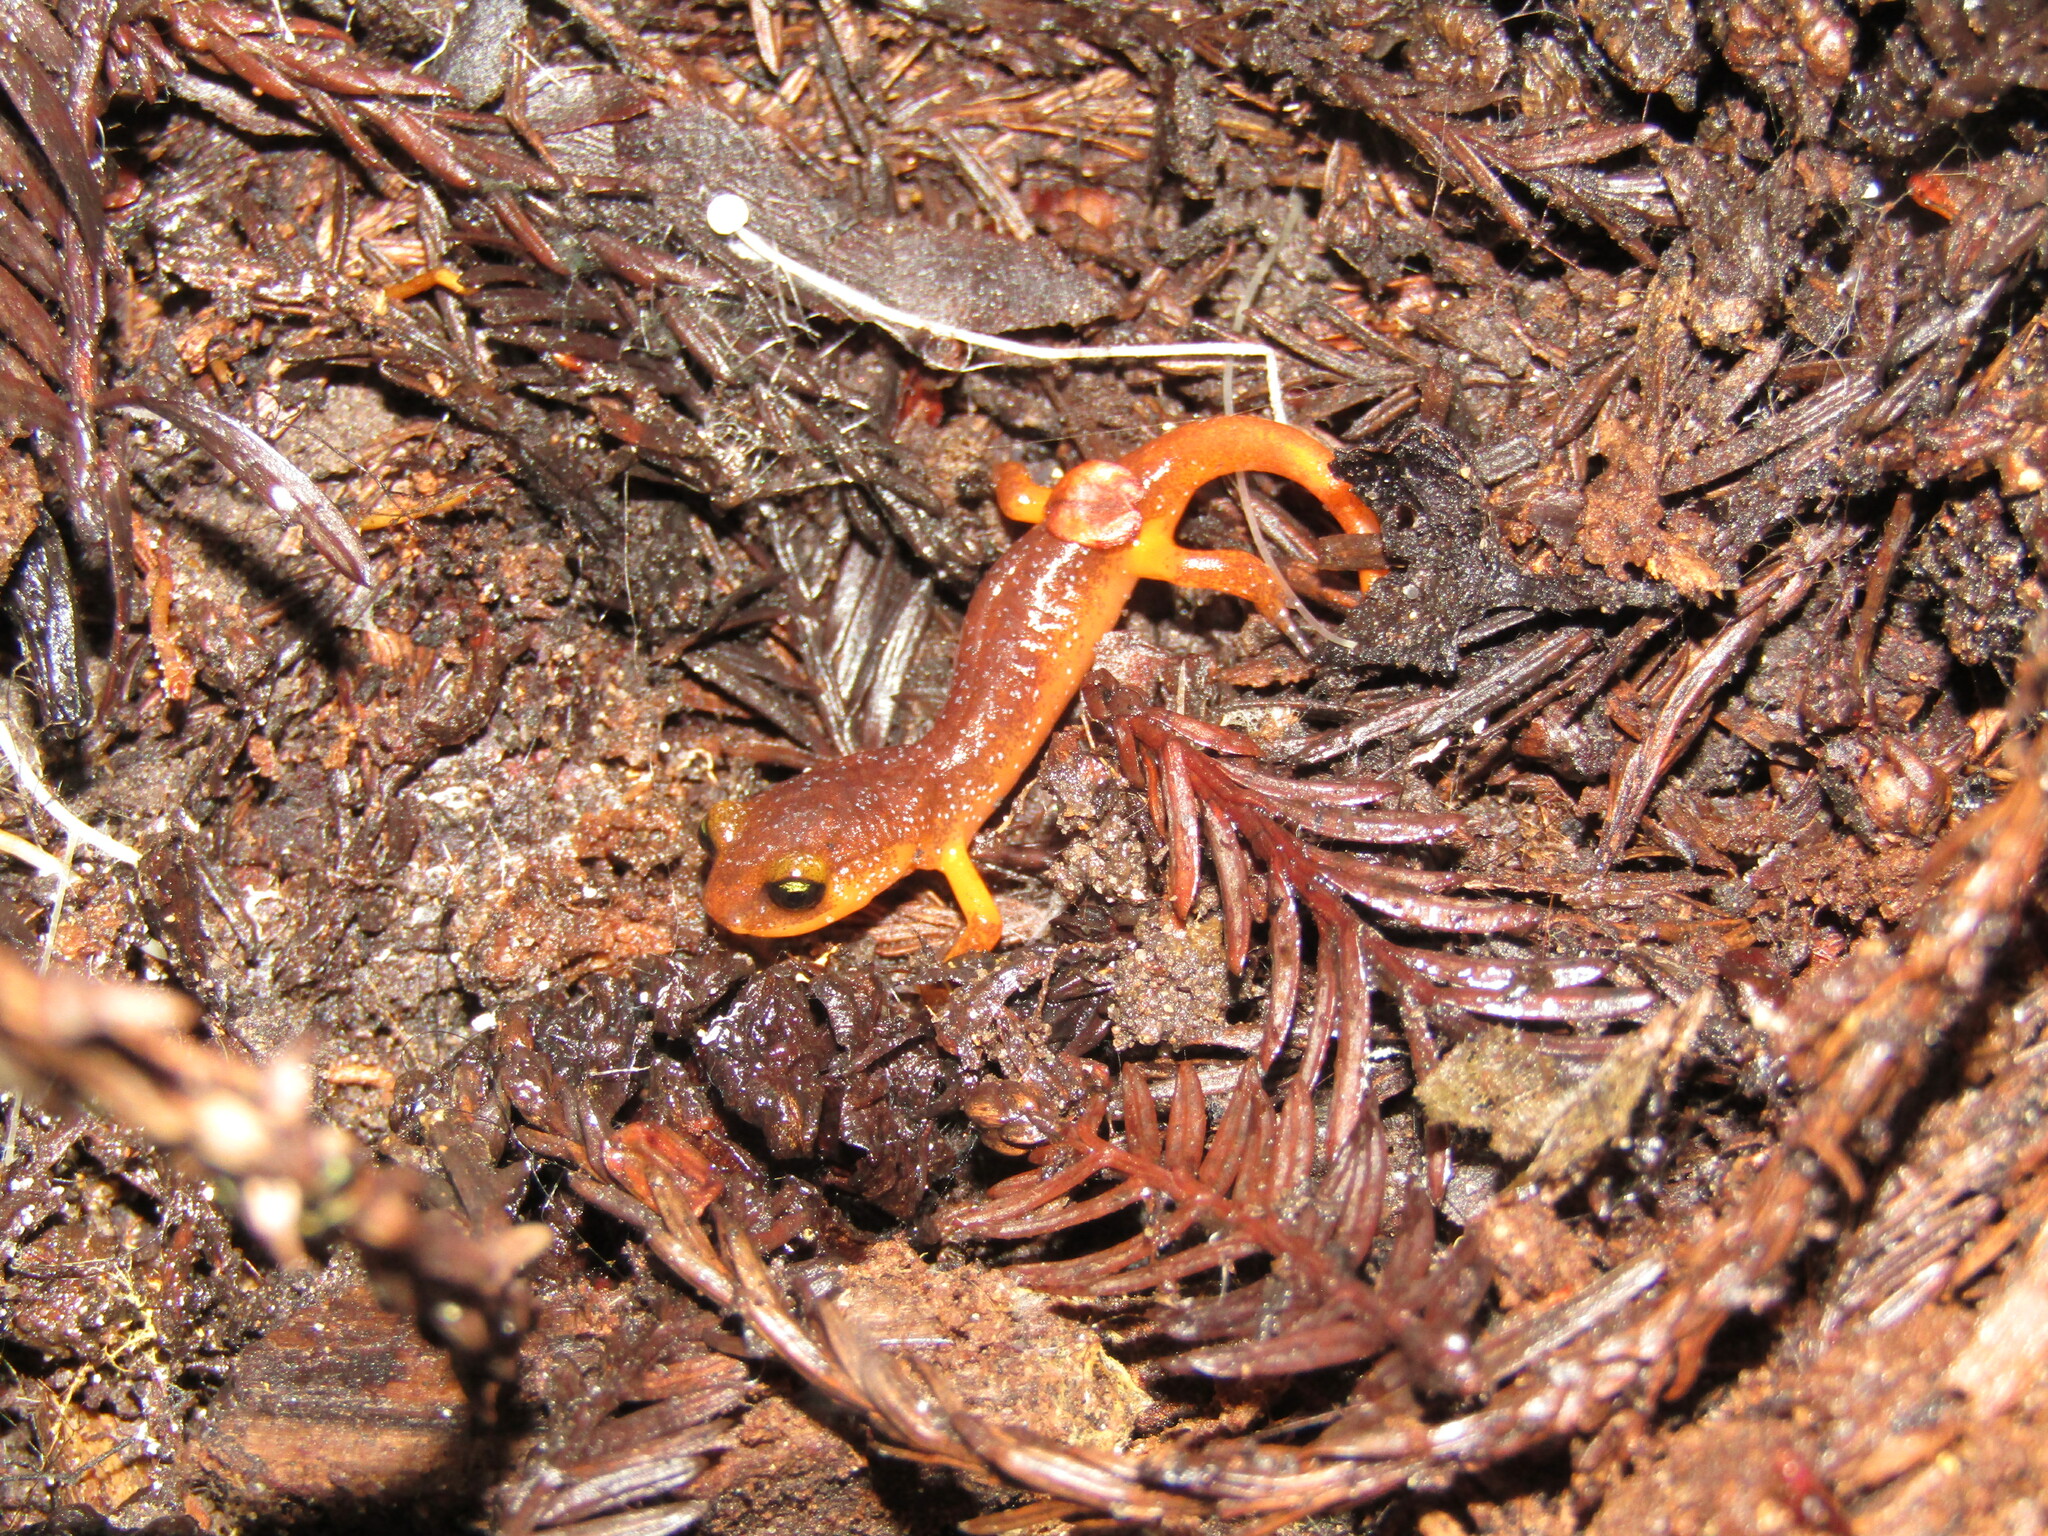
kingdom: Animalia
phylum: Chordata
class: Amphibia
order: Caudata
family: Plethodontidae
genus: Ensatina
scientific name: Ensatina eschscholtzii
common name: Ensatina
